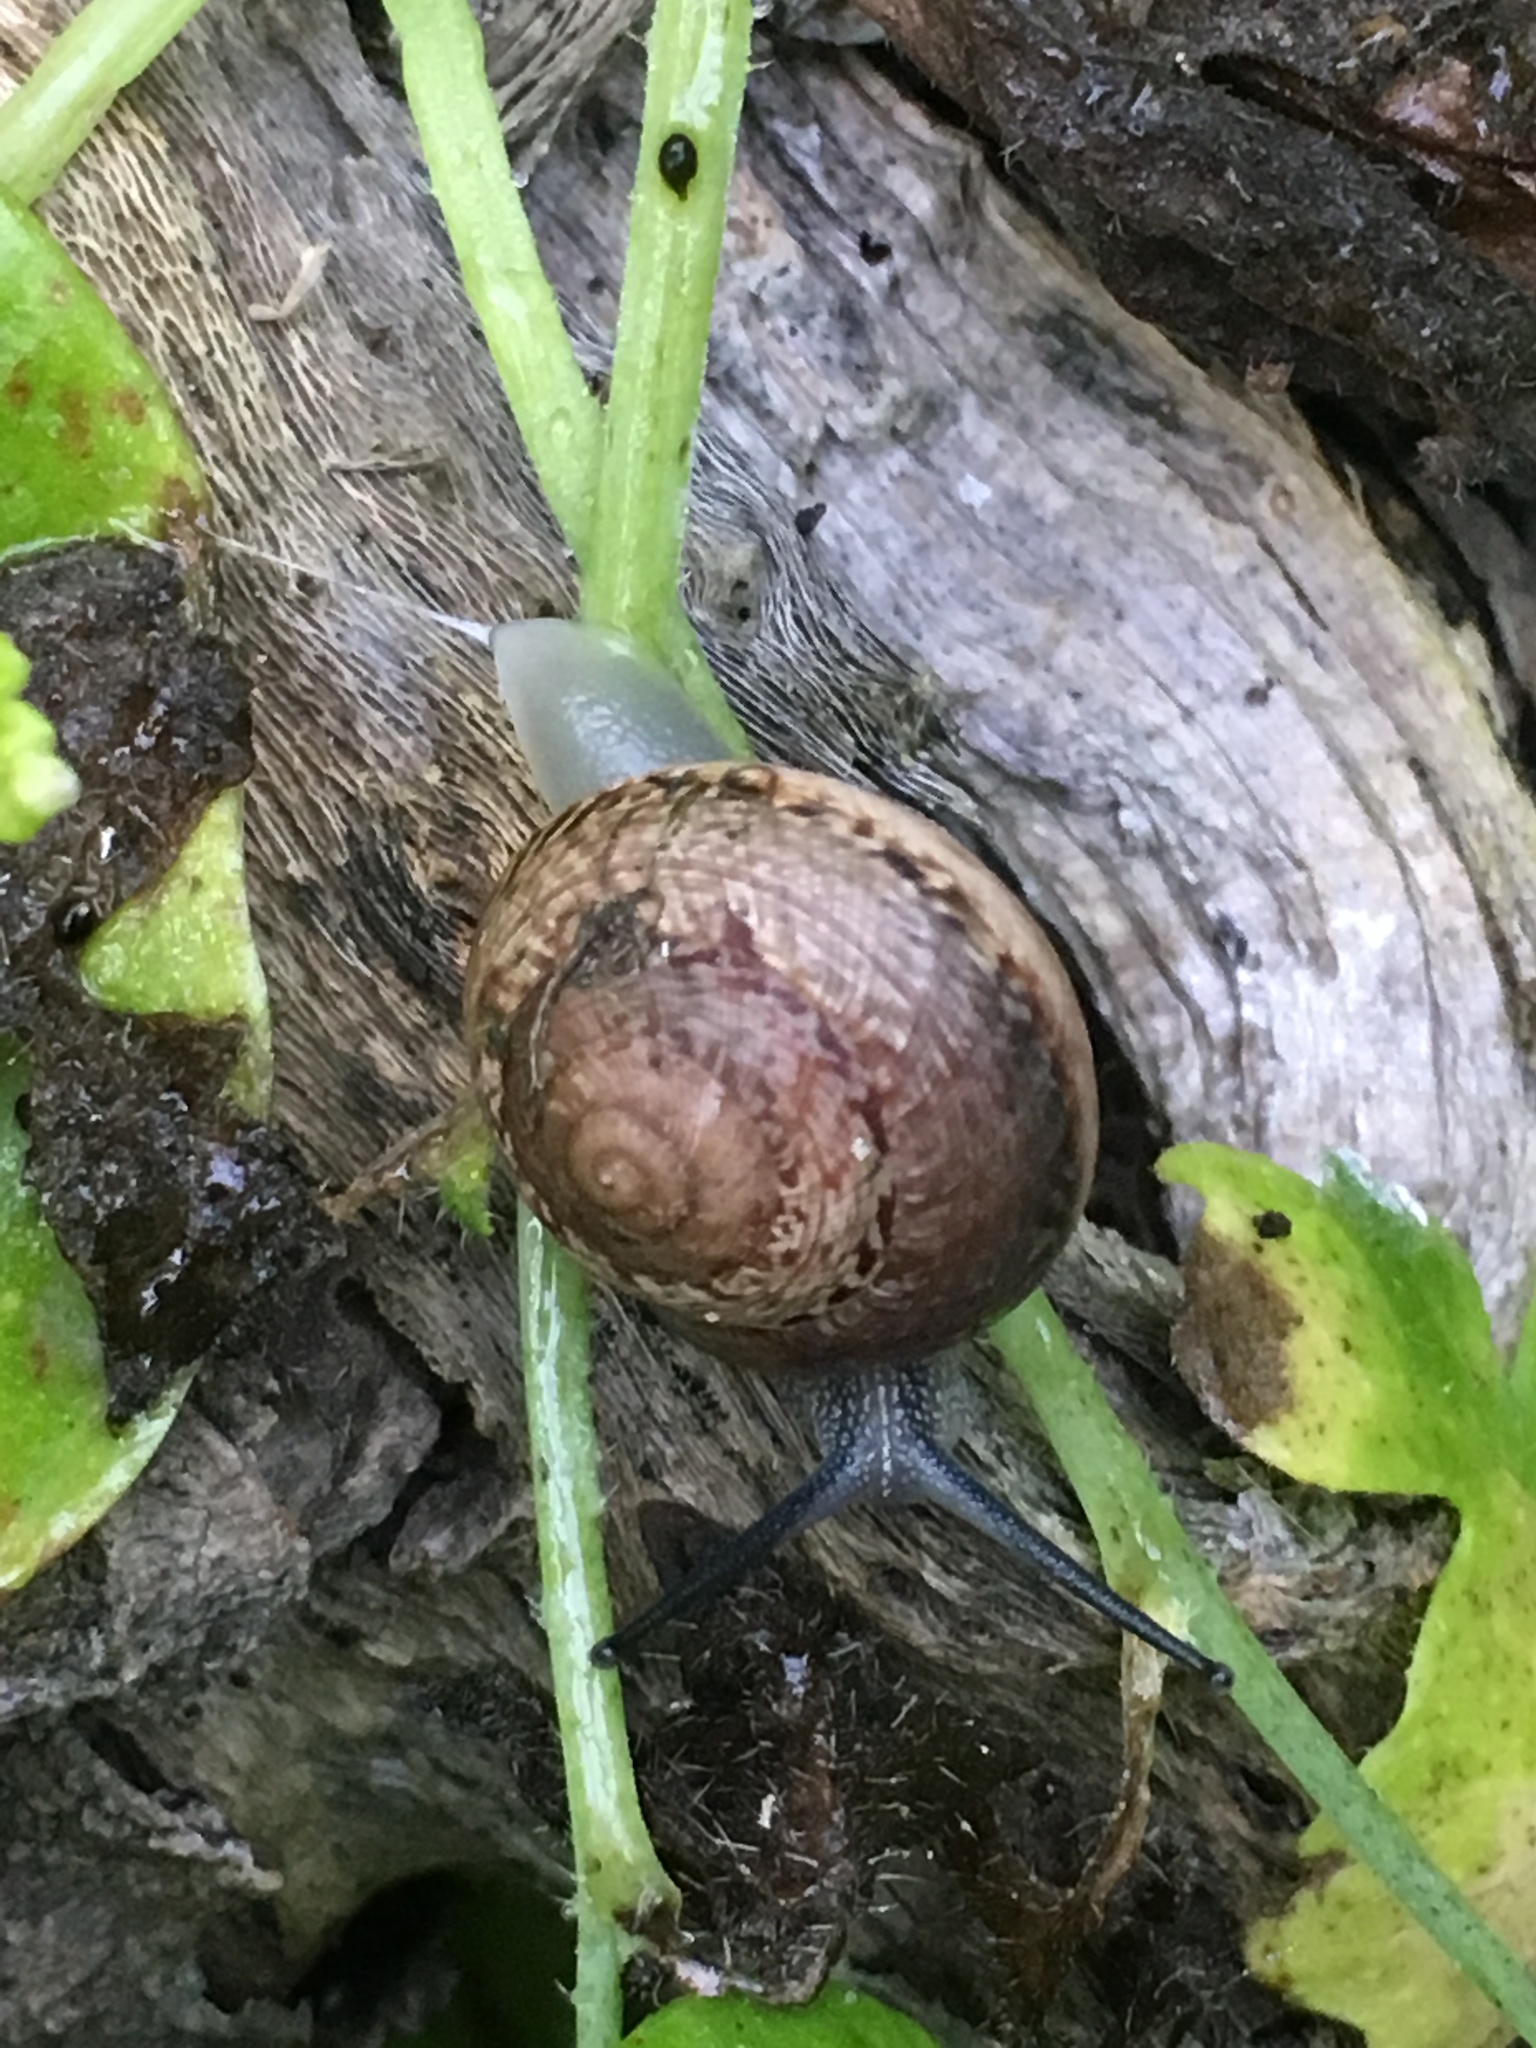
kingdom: Animalia
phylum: Mollusca
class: Gastropoda
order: Stylommatophora
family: Xanthonychidae
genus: Xerarionta
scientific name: Xerarionta tryoni
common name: Bicolor cactus snail
